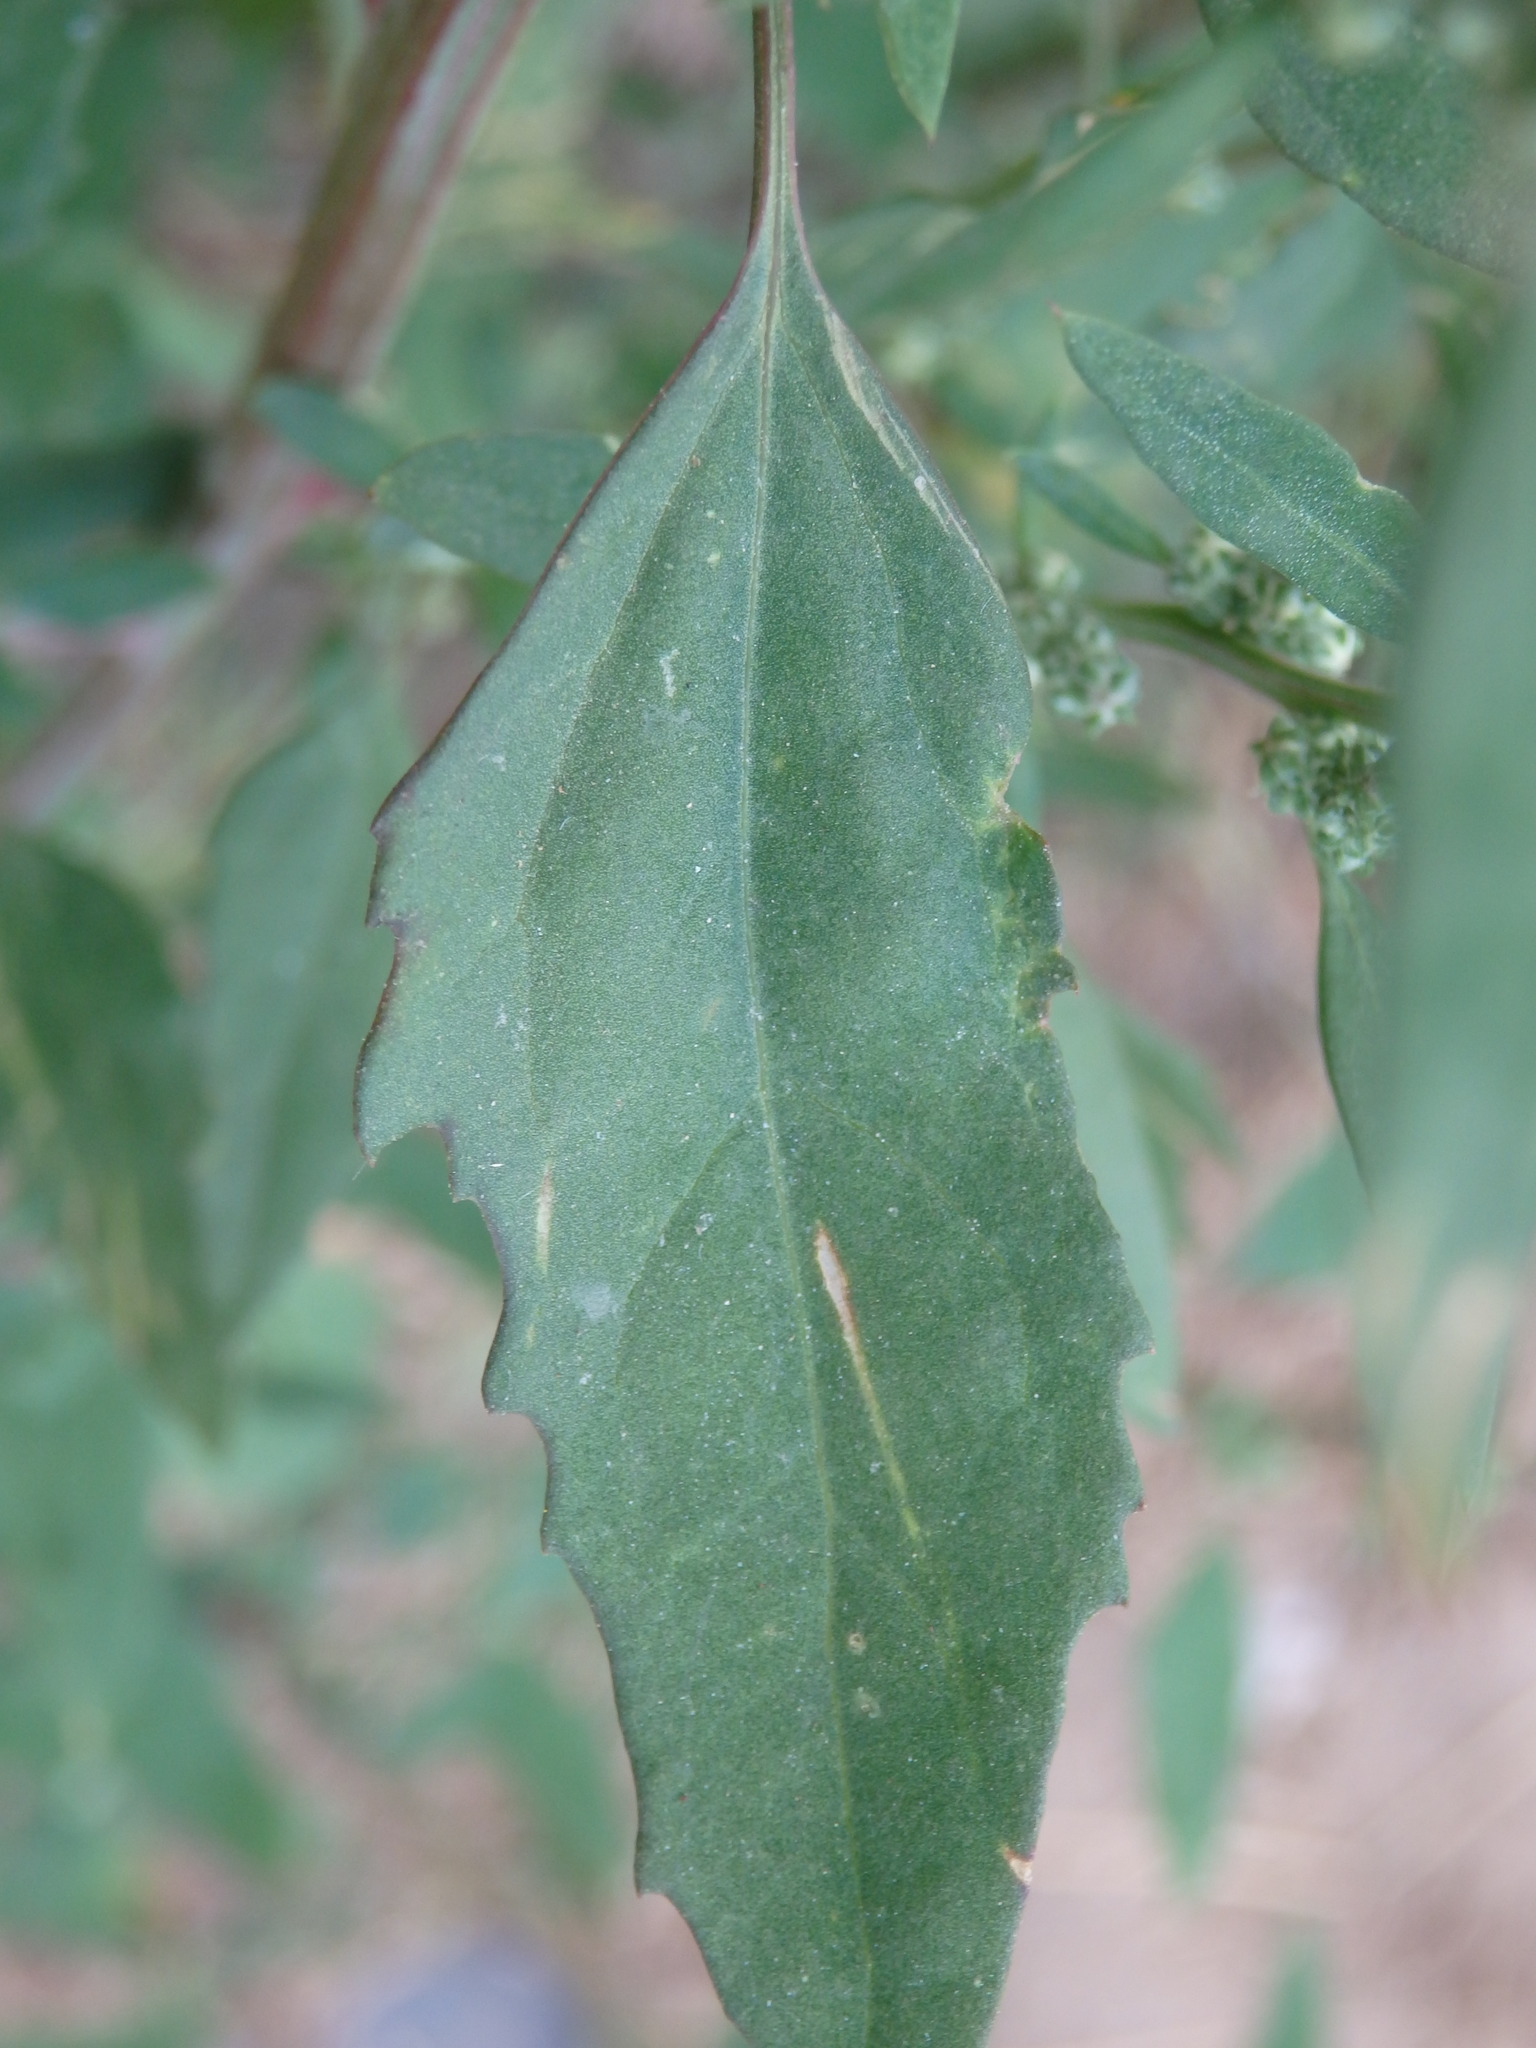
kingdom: Plantae
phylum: Tracheophyta
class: Magnoliopsida
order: Caryophyllales
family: Amaranthaceae
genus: Chenopodium
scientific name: Chenopodium album
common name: Fat-hen
